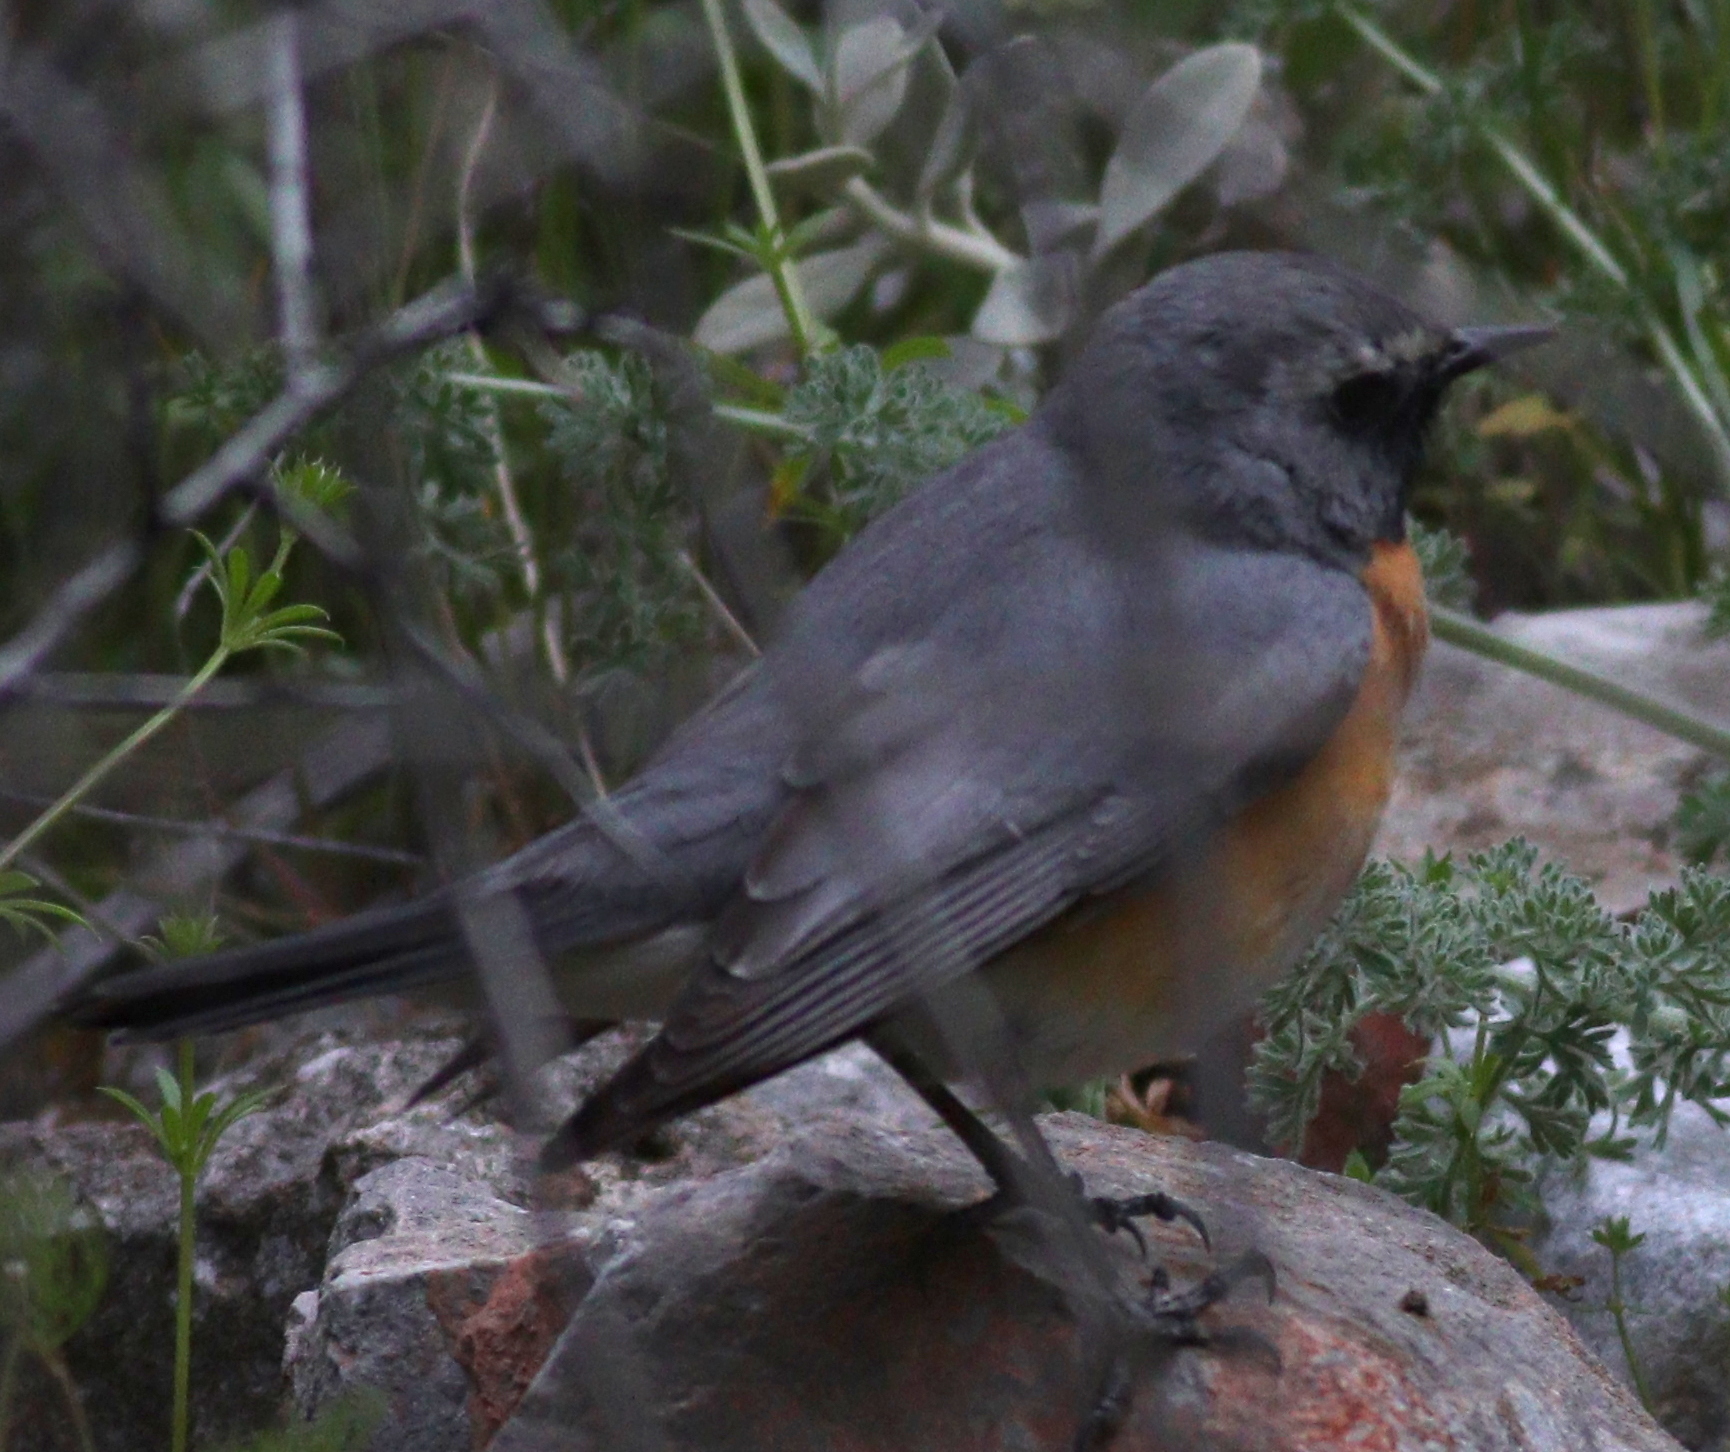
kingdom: Animalia
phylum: Chordata
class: Aves
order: Passeriformes
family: Muscicapidae
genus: Irania
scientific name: Irania gutturalis
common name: White-throated robin
